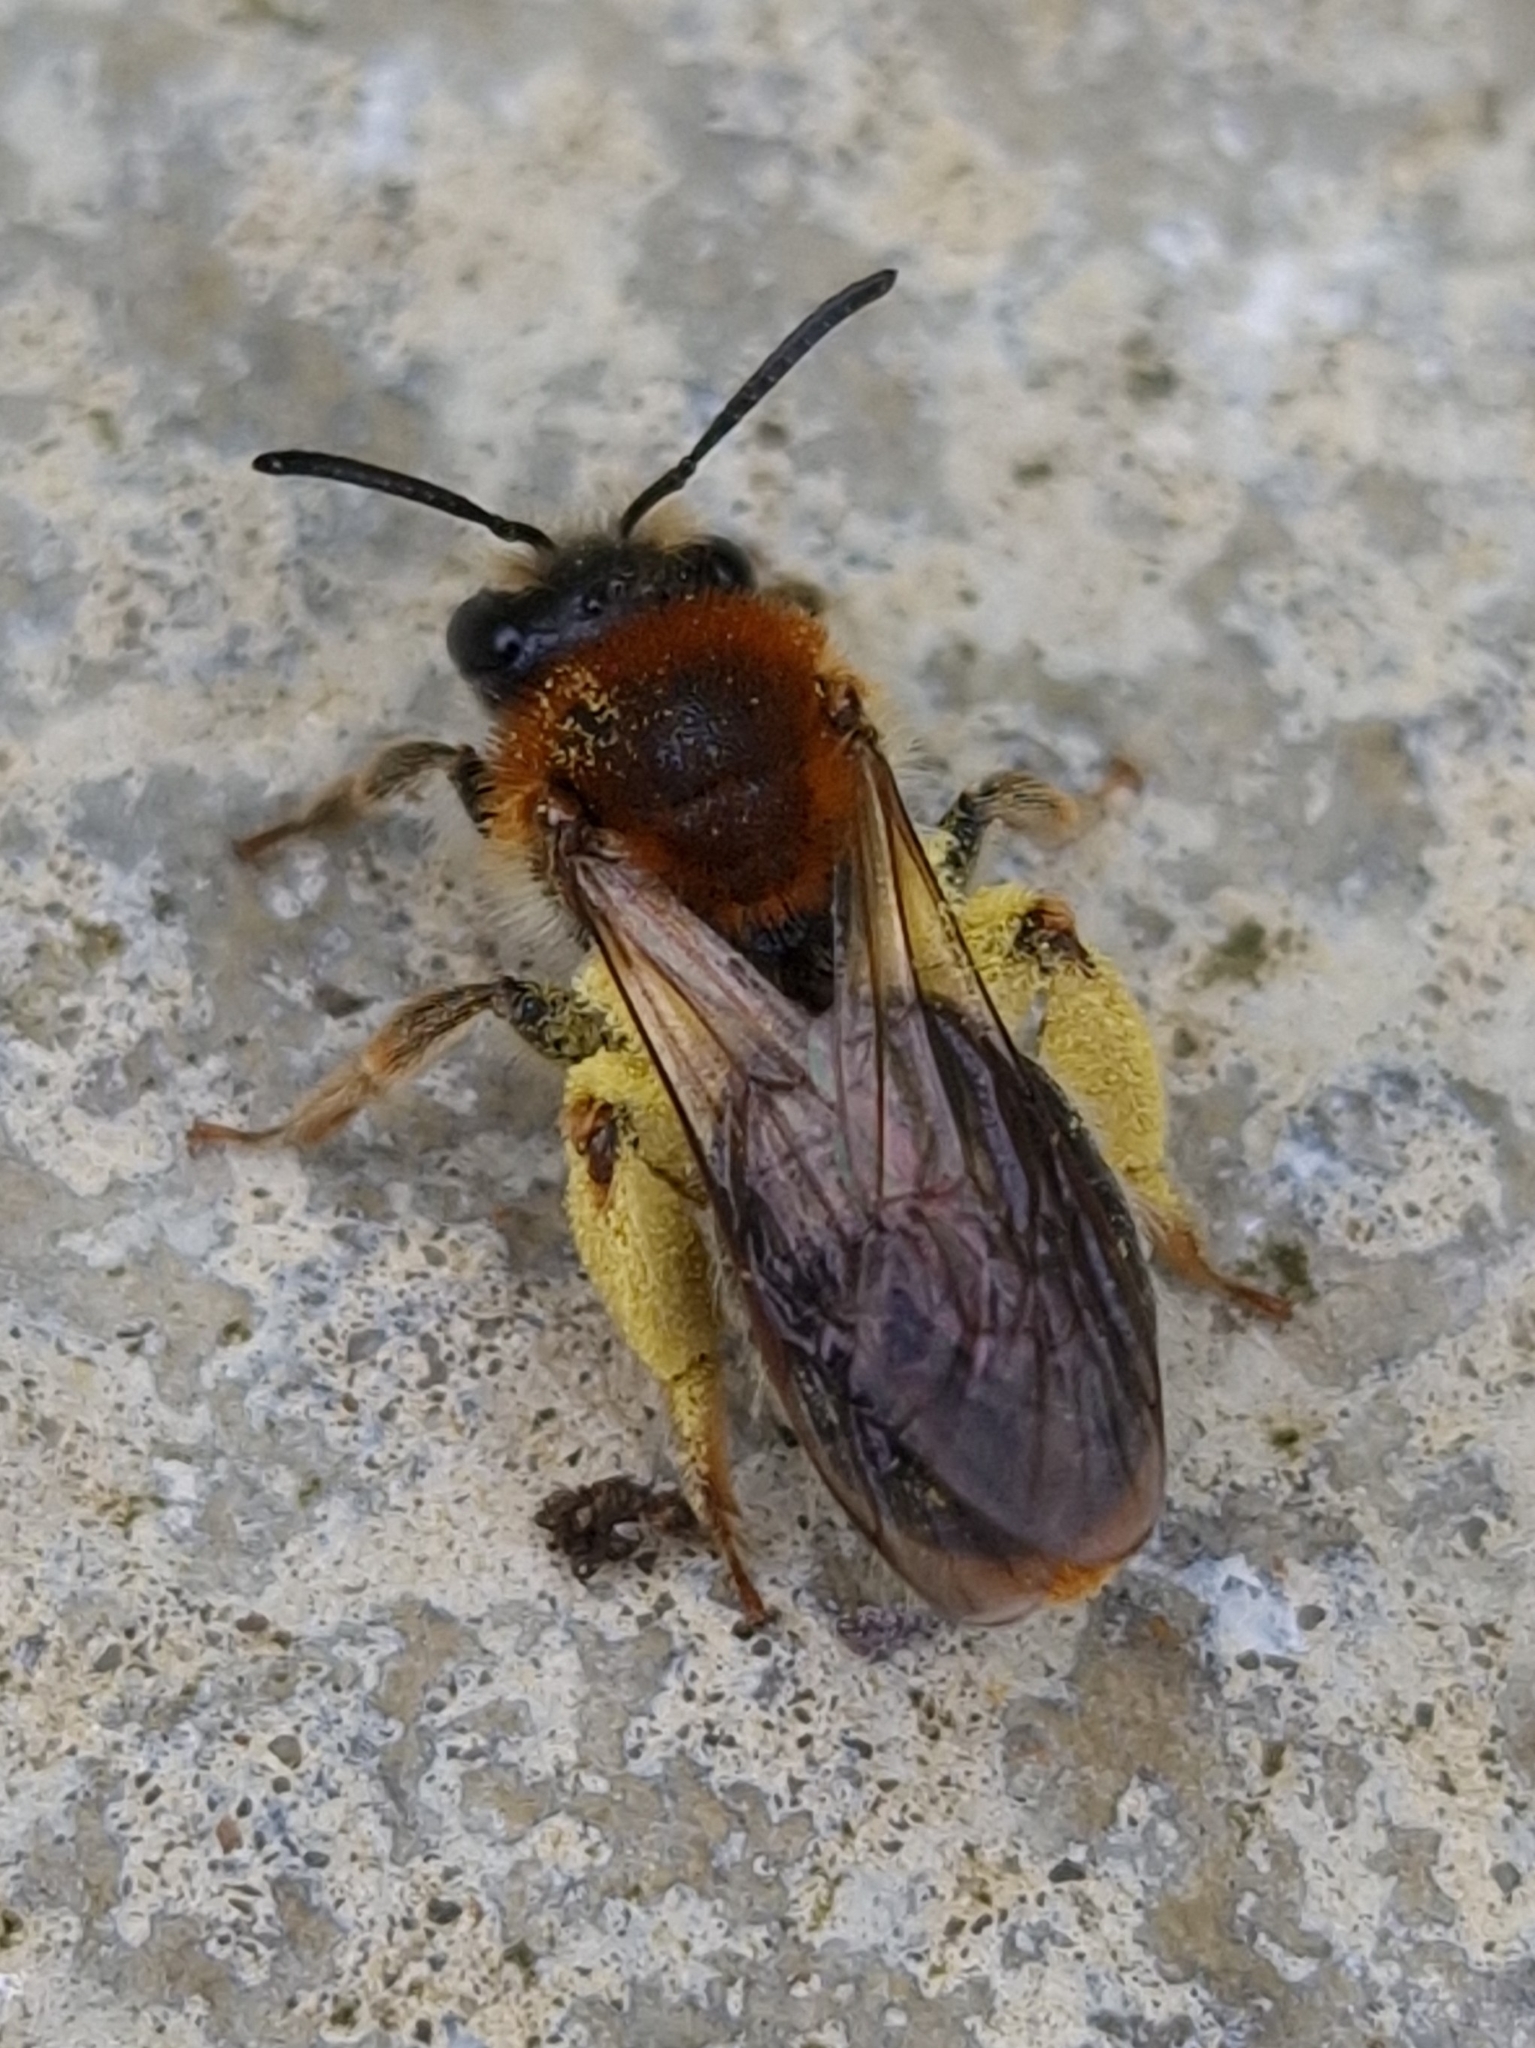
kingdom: Animalia
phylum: Arthropoda
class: Insecta
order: Hymenoptera
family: Andrenidae
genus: Andrena
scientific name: Andrena haemorrhoa
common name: Early mining bee
